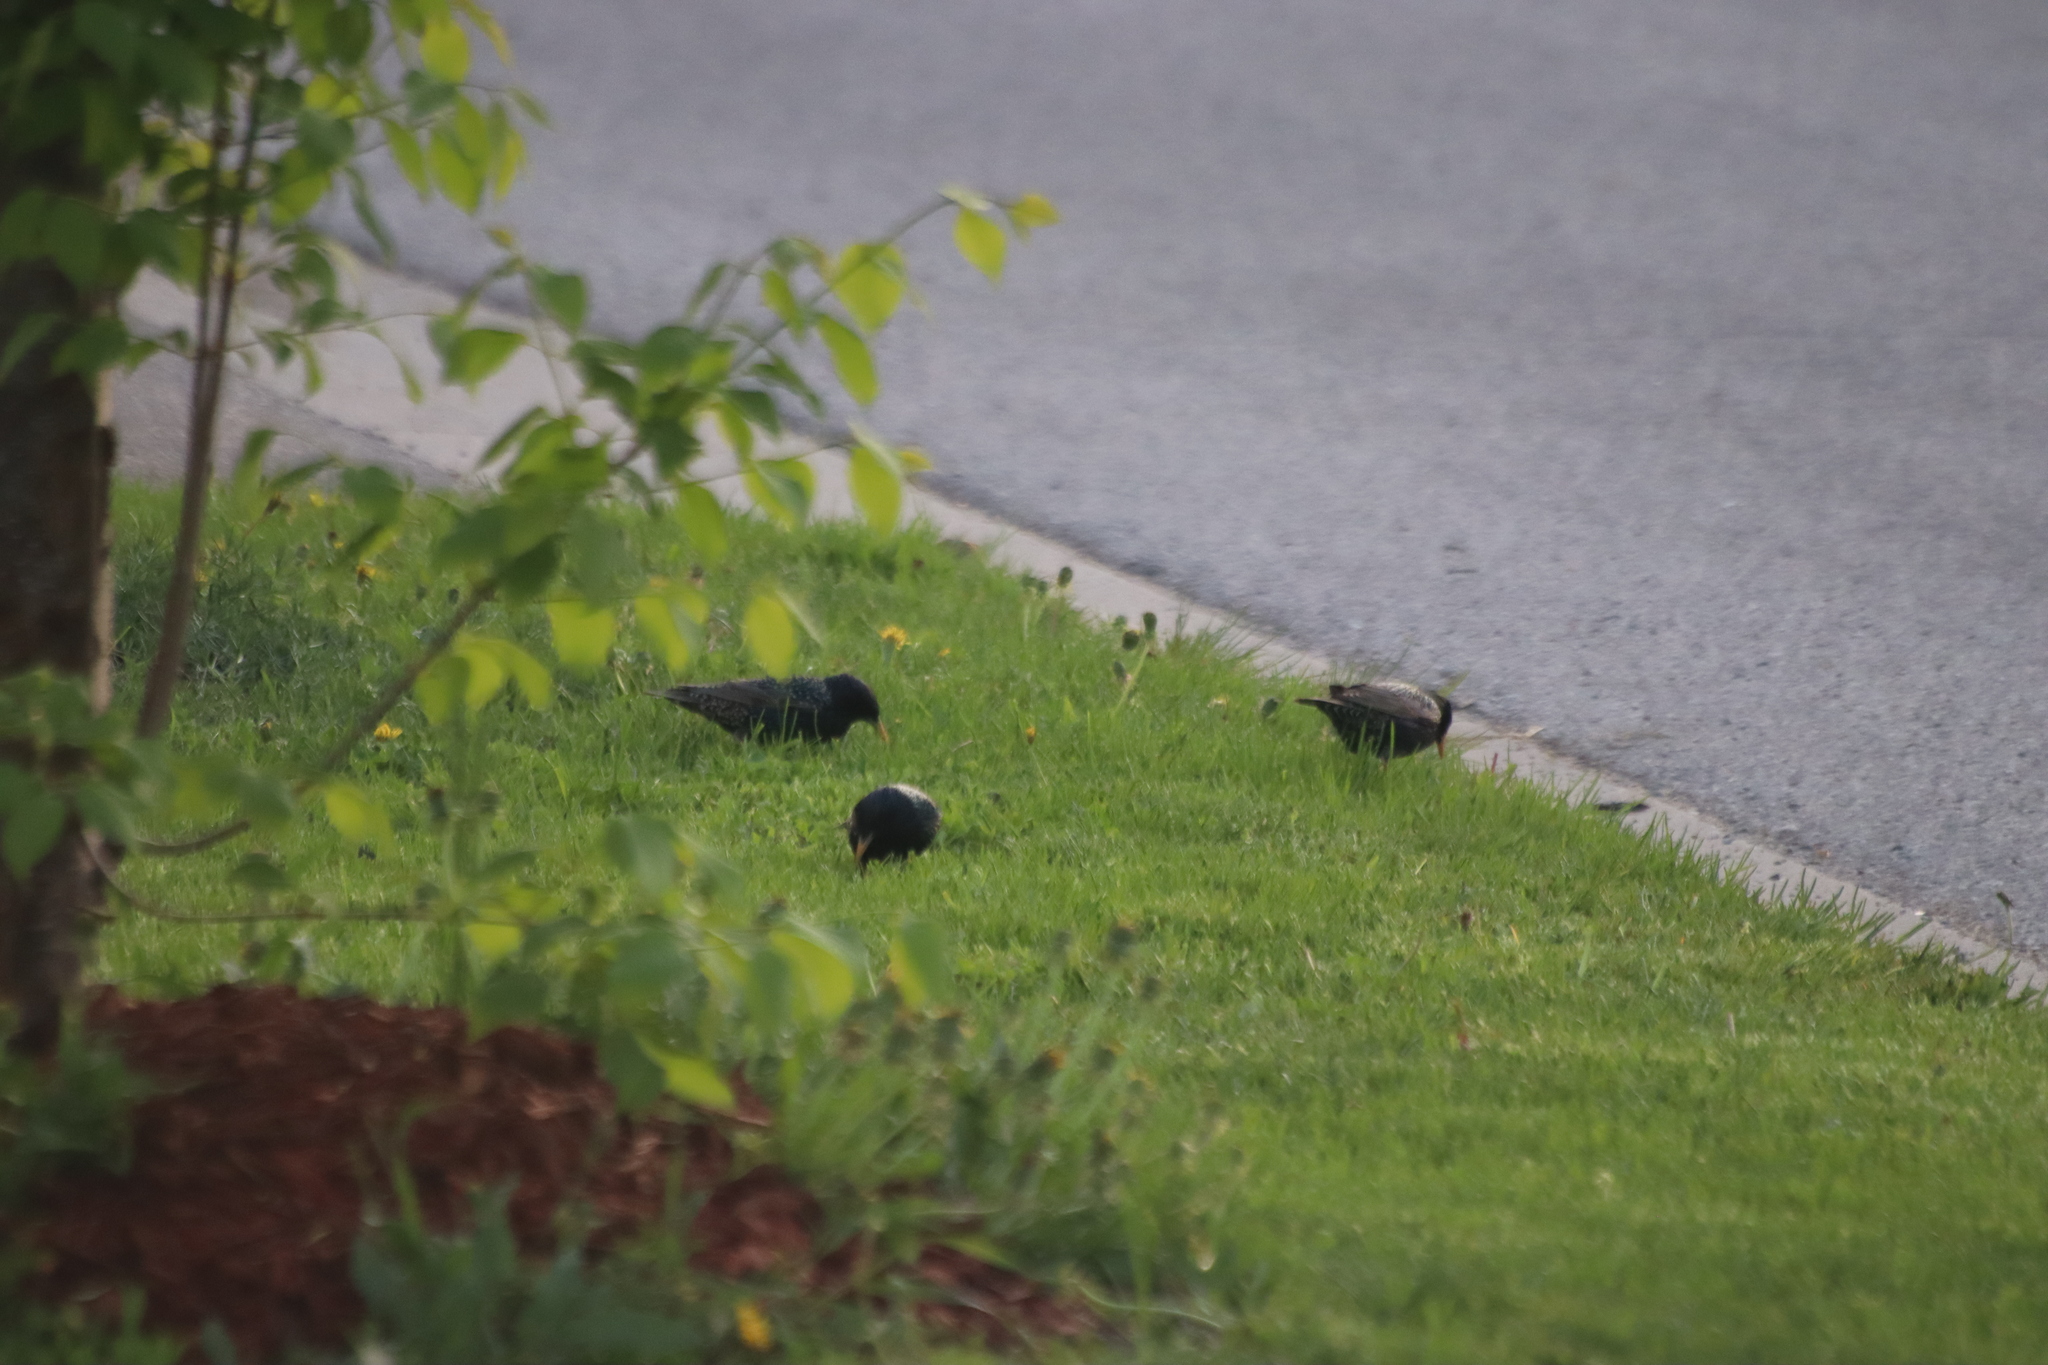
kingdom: Animalia
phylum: Chordata
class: Aves
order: Passeriformes
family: Sturnidae
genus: Sturnus
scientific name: Sturnus vulgaris
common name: Common starling
